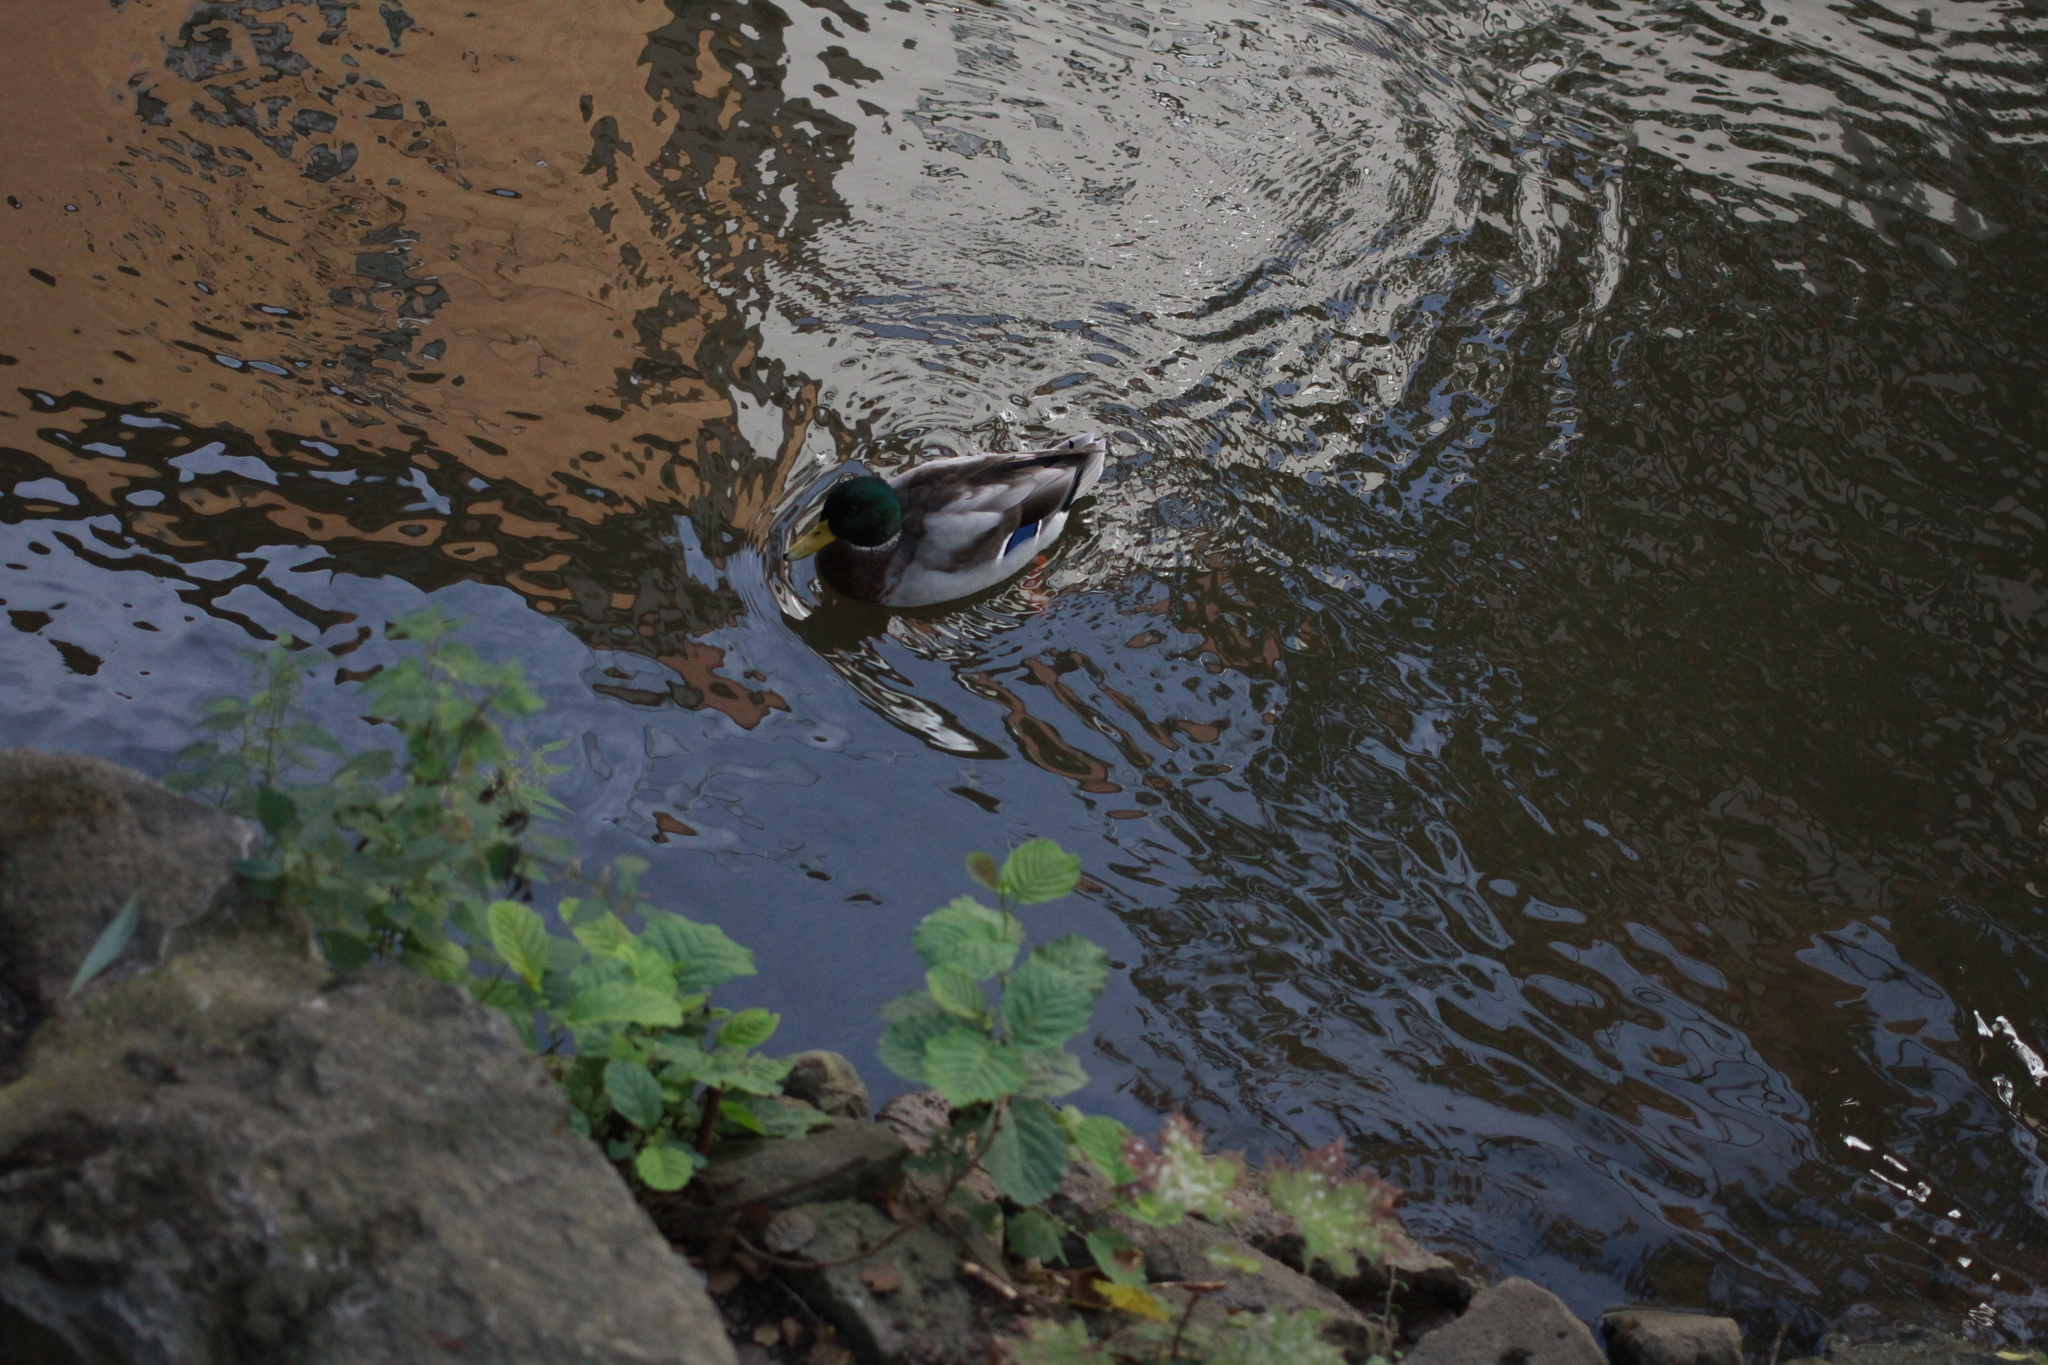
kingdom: Animalia
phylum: Chordata
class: Aves
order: Anseriformes
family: Anatidae
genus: Anas
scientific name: Anas platyrhynchos
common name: Mallard
